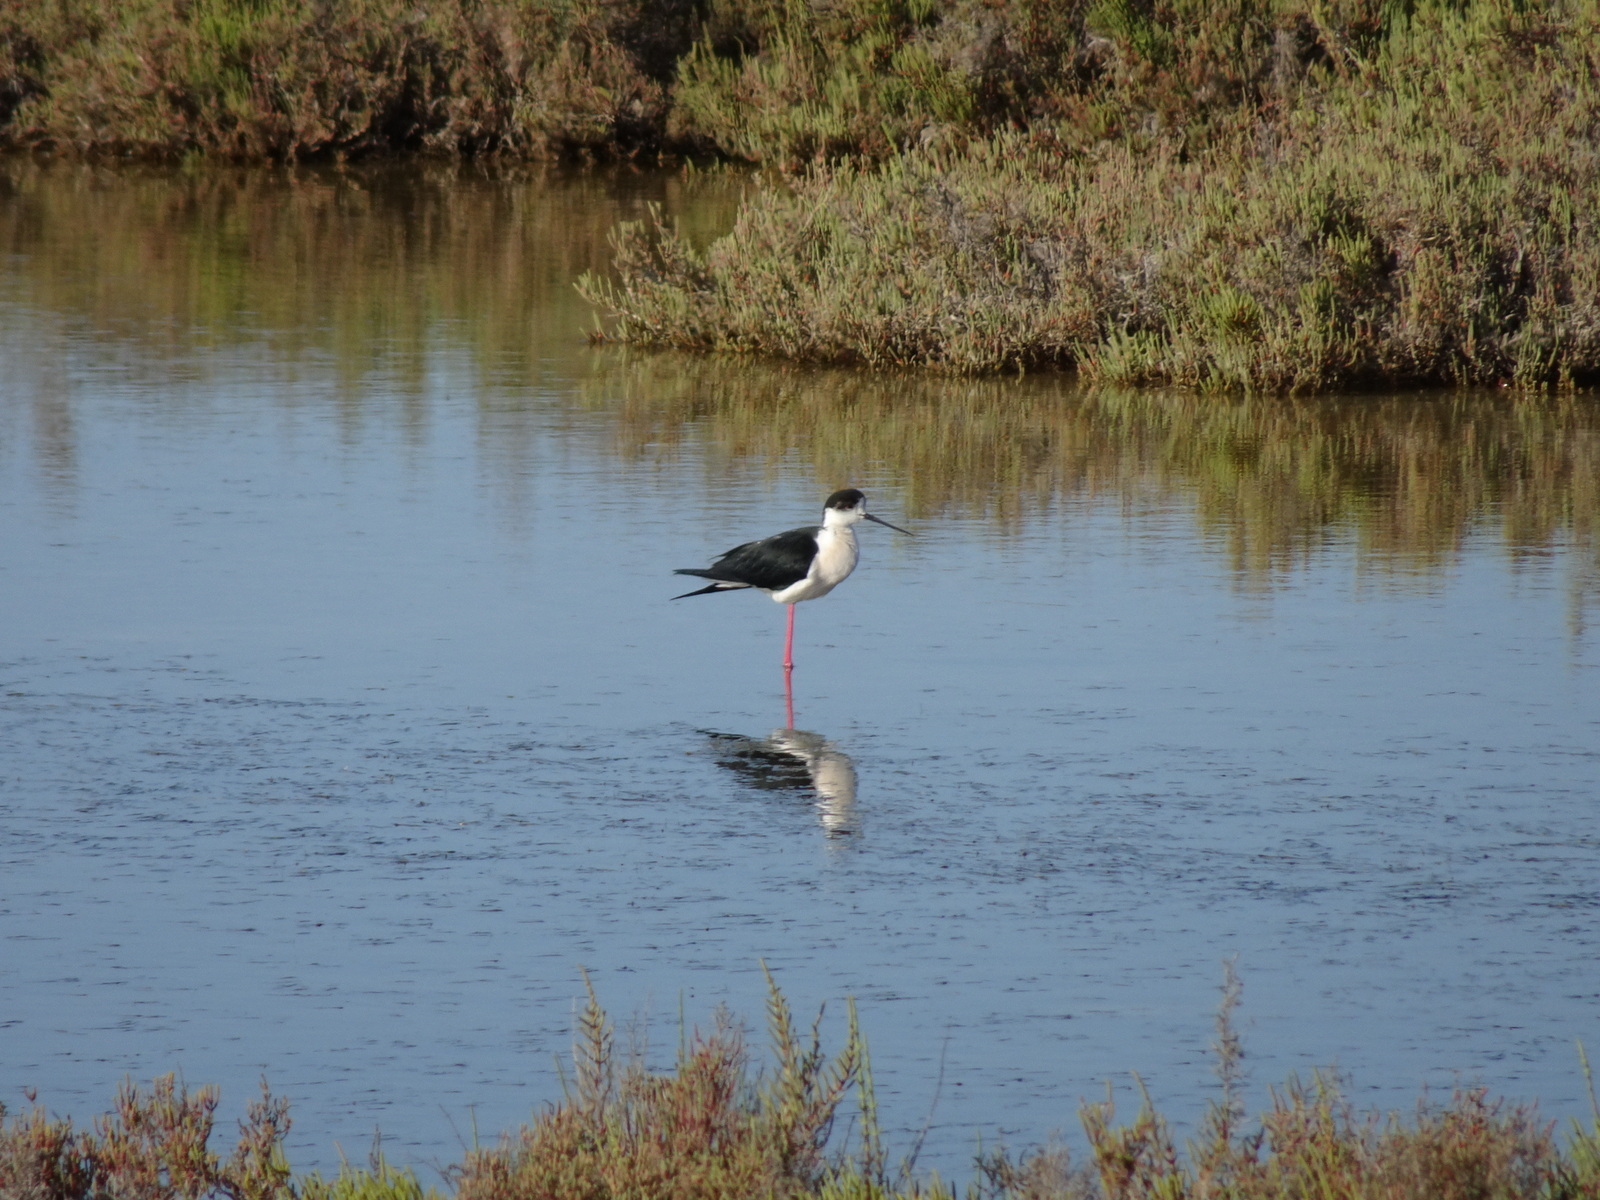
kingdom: Animalia
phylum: Chordata
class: Aves
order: Charadriiformes
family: Recurvirostridae
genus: Himantopus
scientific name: Himantopus himantopus
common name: Black-winged stilt
